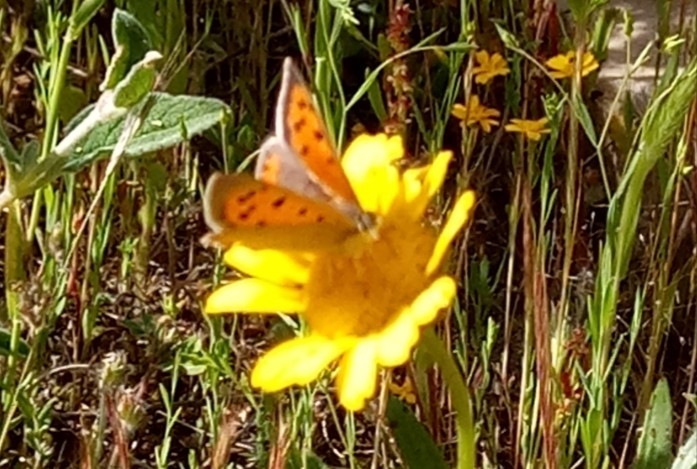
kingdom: Animalia
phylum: Arthropoda
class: Insecta
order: Lepidoptera
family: Lycaenidae
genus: Lycaena
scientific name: Lycaena phlaeas
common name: Small copper
